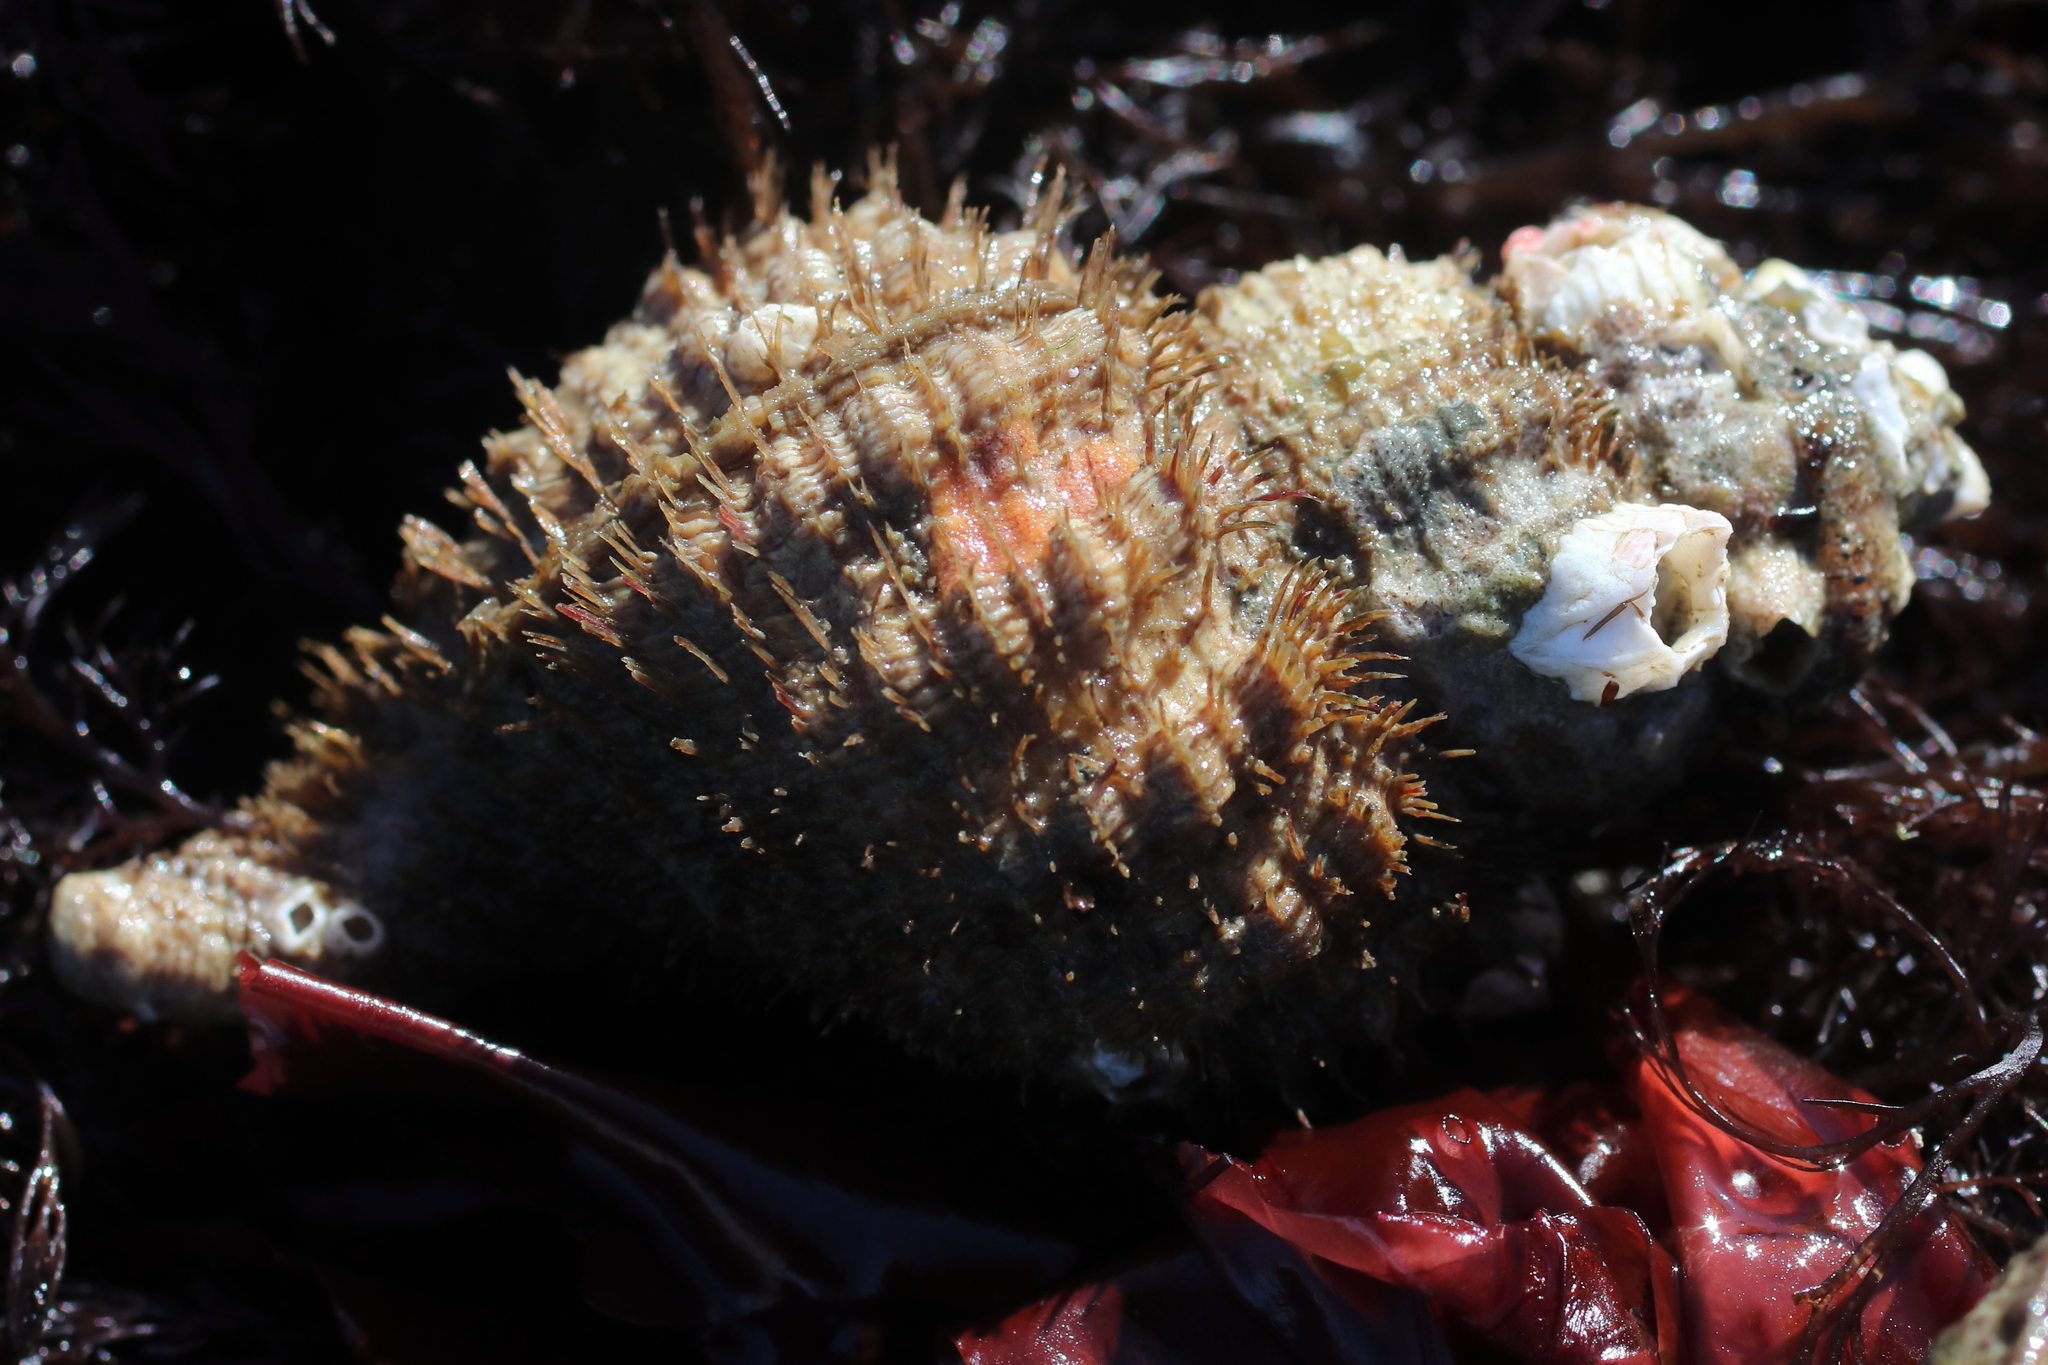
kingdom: Animalia
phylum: Mollusca
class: Gastropoda
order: Littorinimorpha
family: Cymatiidae
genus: Fusitriton
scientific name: Fusitriton oregonensis
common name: Oregon hairy triton
